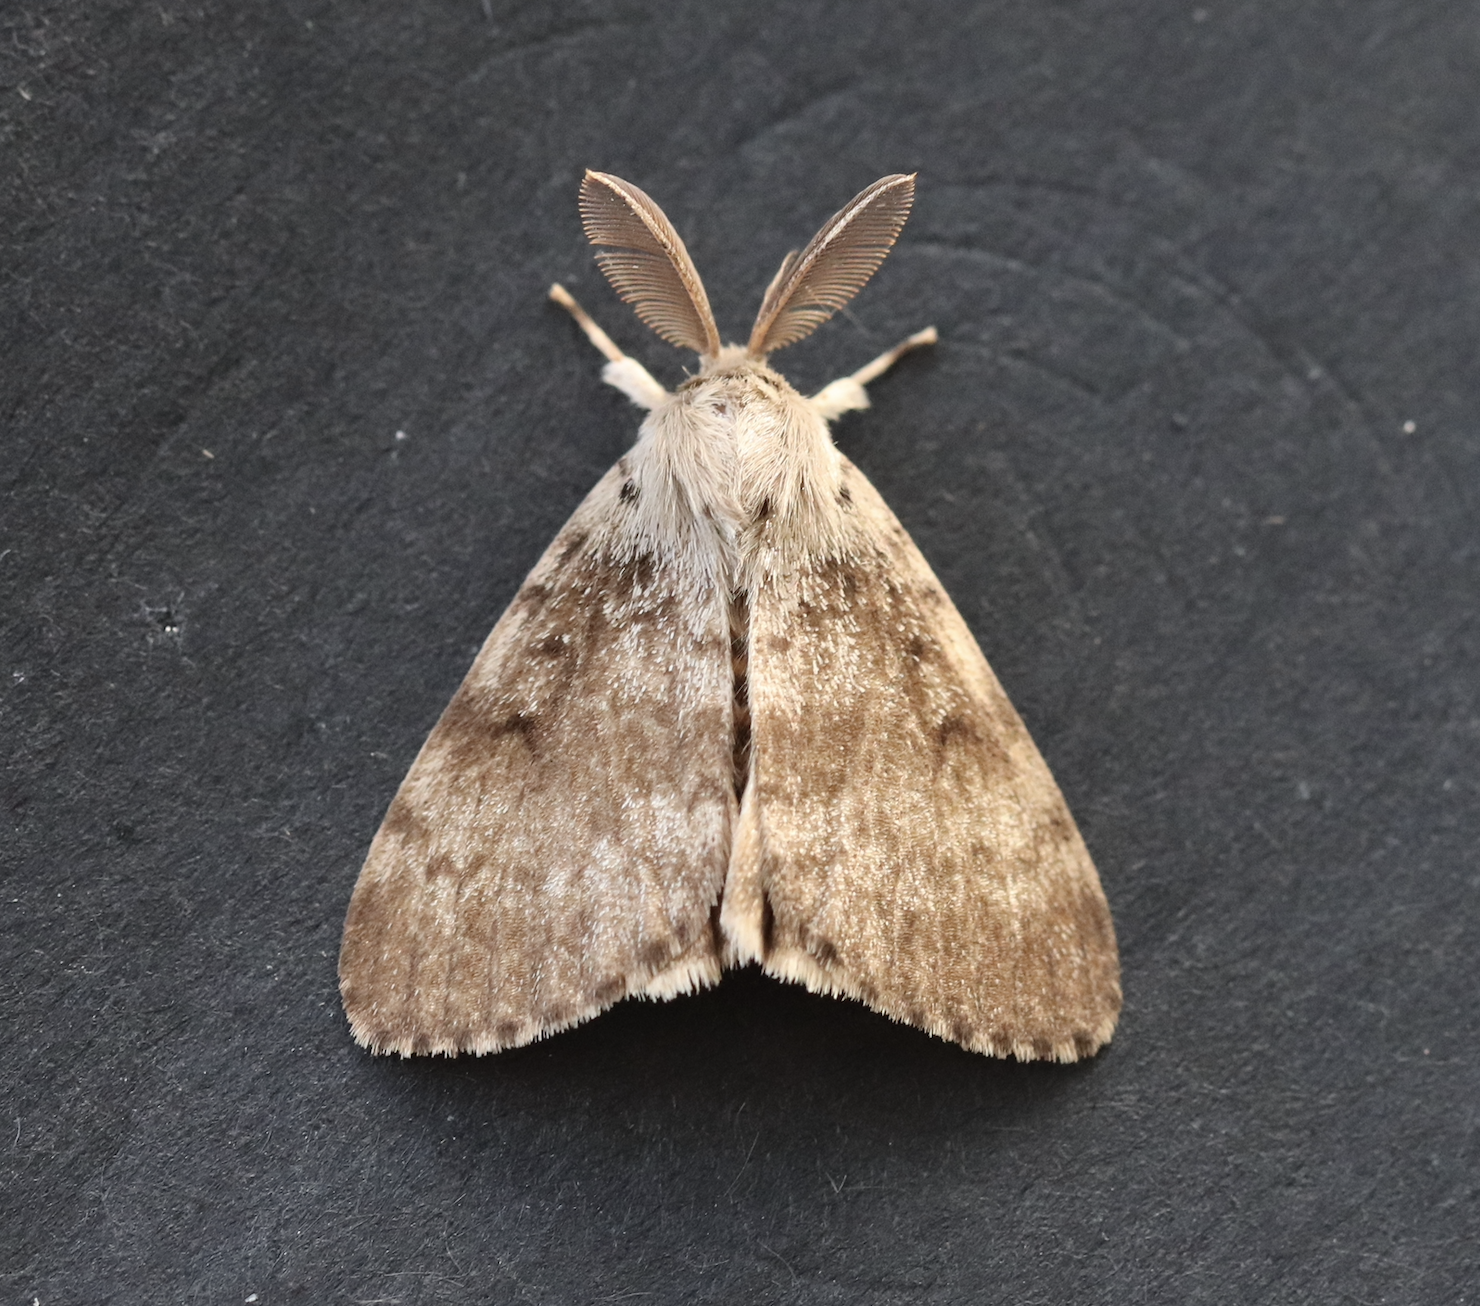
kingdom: Animalia
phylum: Arthropoda
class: Insecta
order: Lepidoptera
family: Erebidae
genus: Lymantria
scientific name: Lymantria dispar
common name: Gypsy moth
